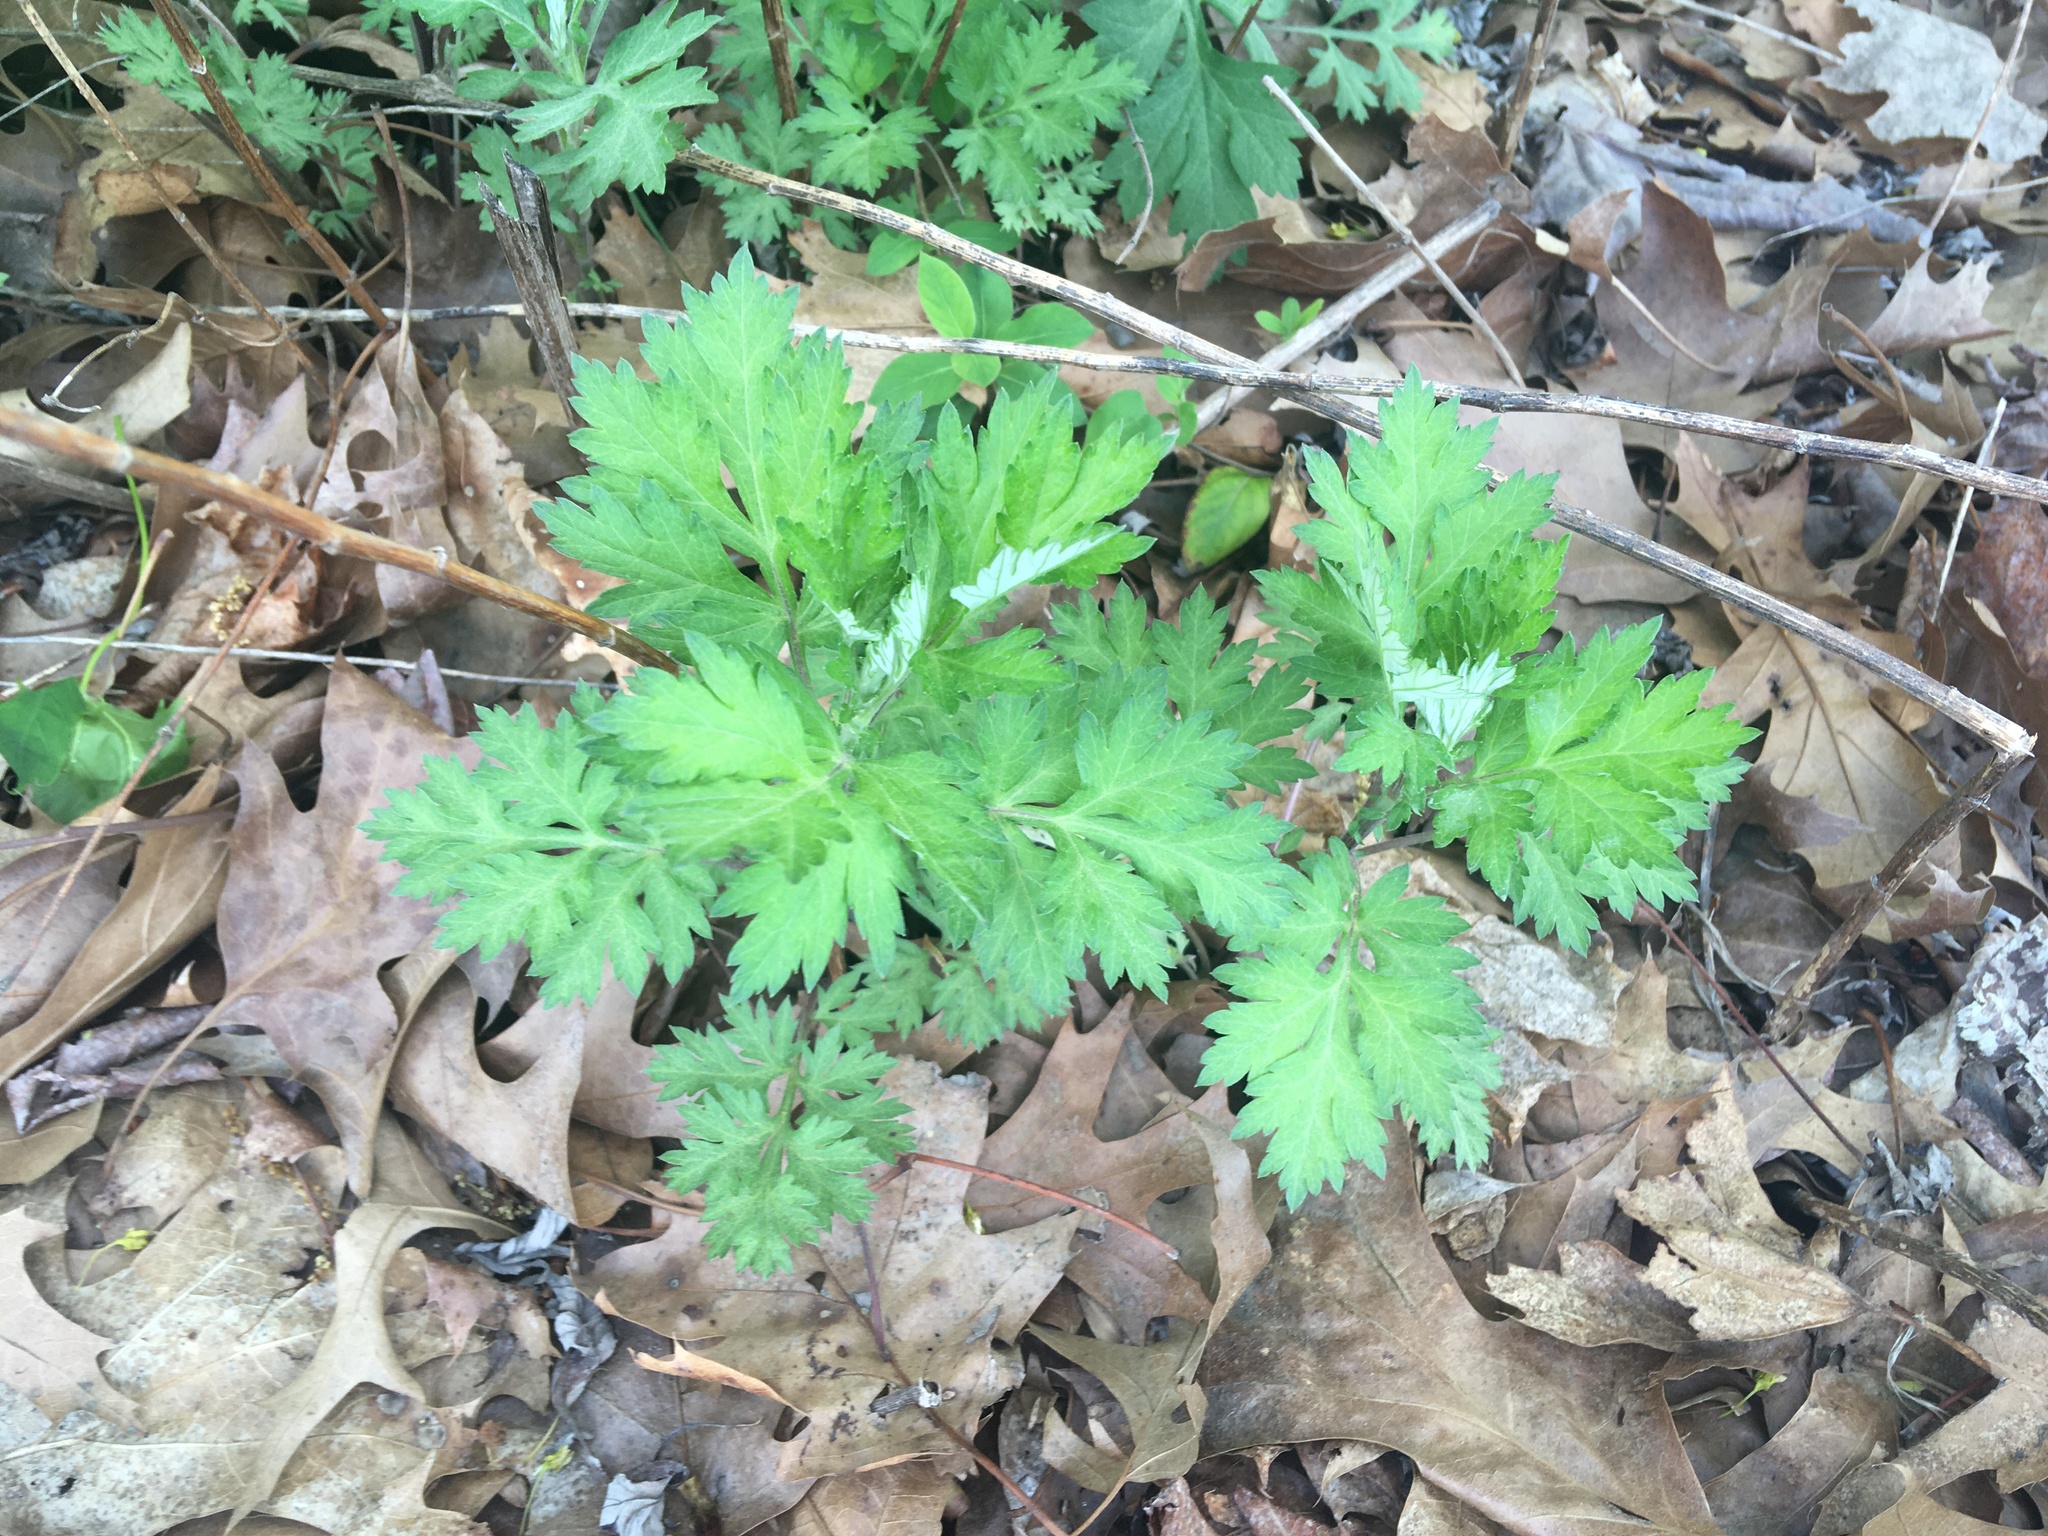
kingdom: Plantae
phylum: Tracheophyta
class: Magnoliopsida
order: Asterales
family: Asteraceae
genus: Artemisia
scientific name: Artemisia vulgaris
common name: Mugwort
